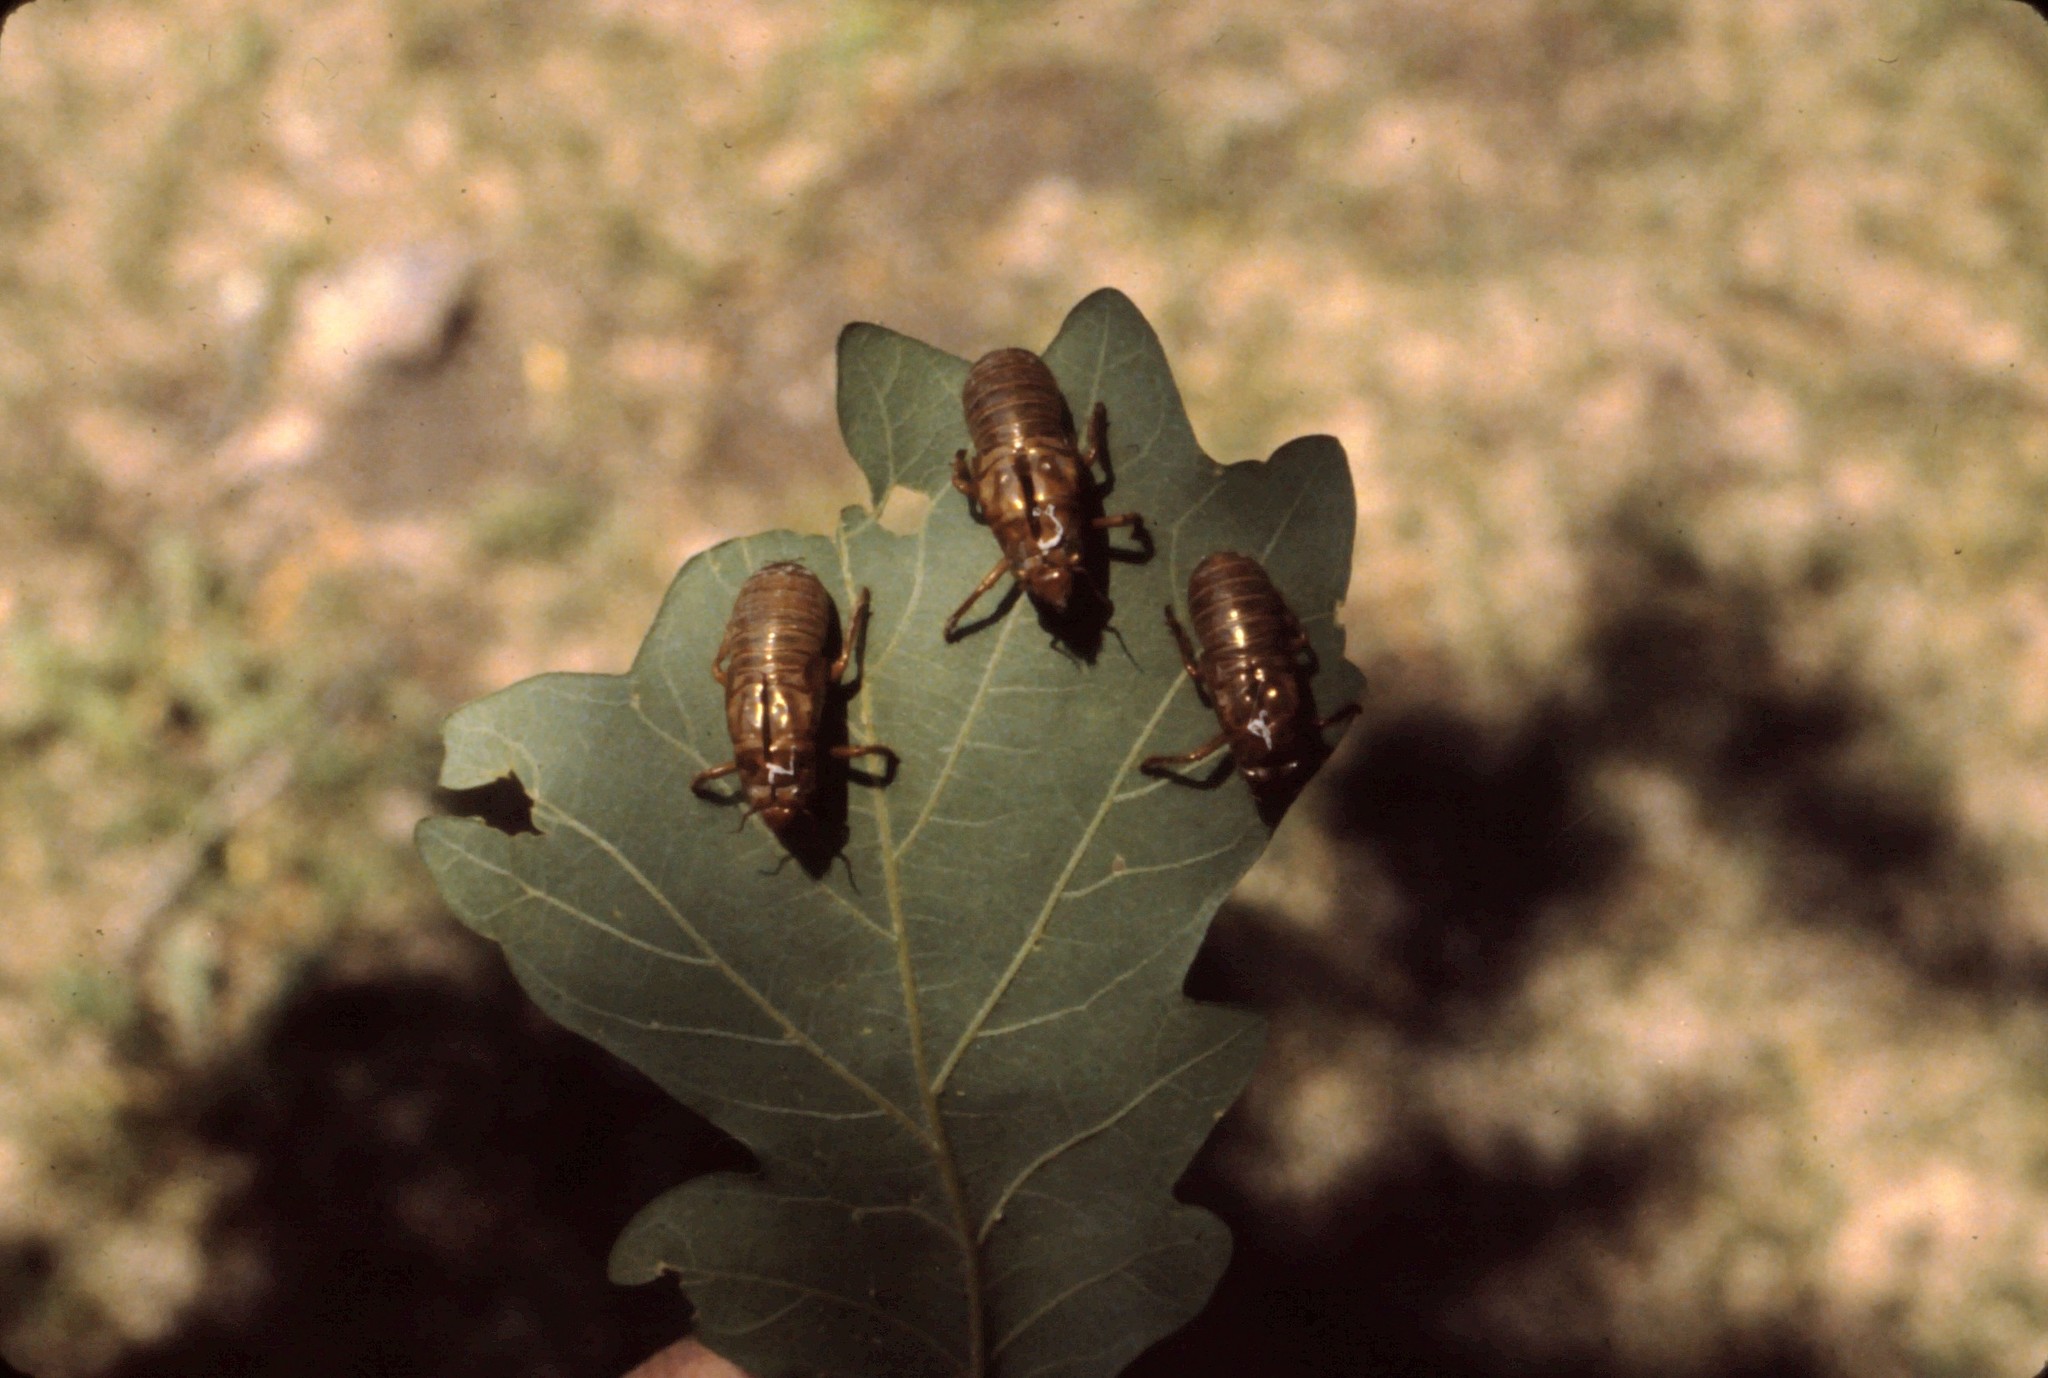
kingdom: Animalia
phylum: Arthropoda
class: Insecta
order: Hemiptera
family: Cicadidae
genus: Magicicada
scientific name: Magicicada
